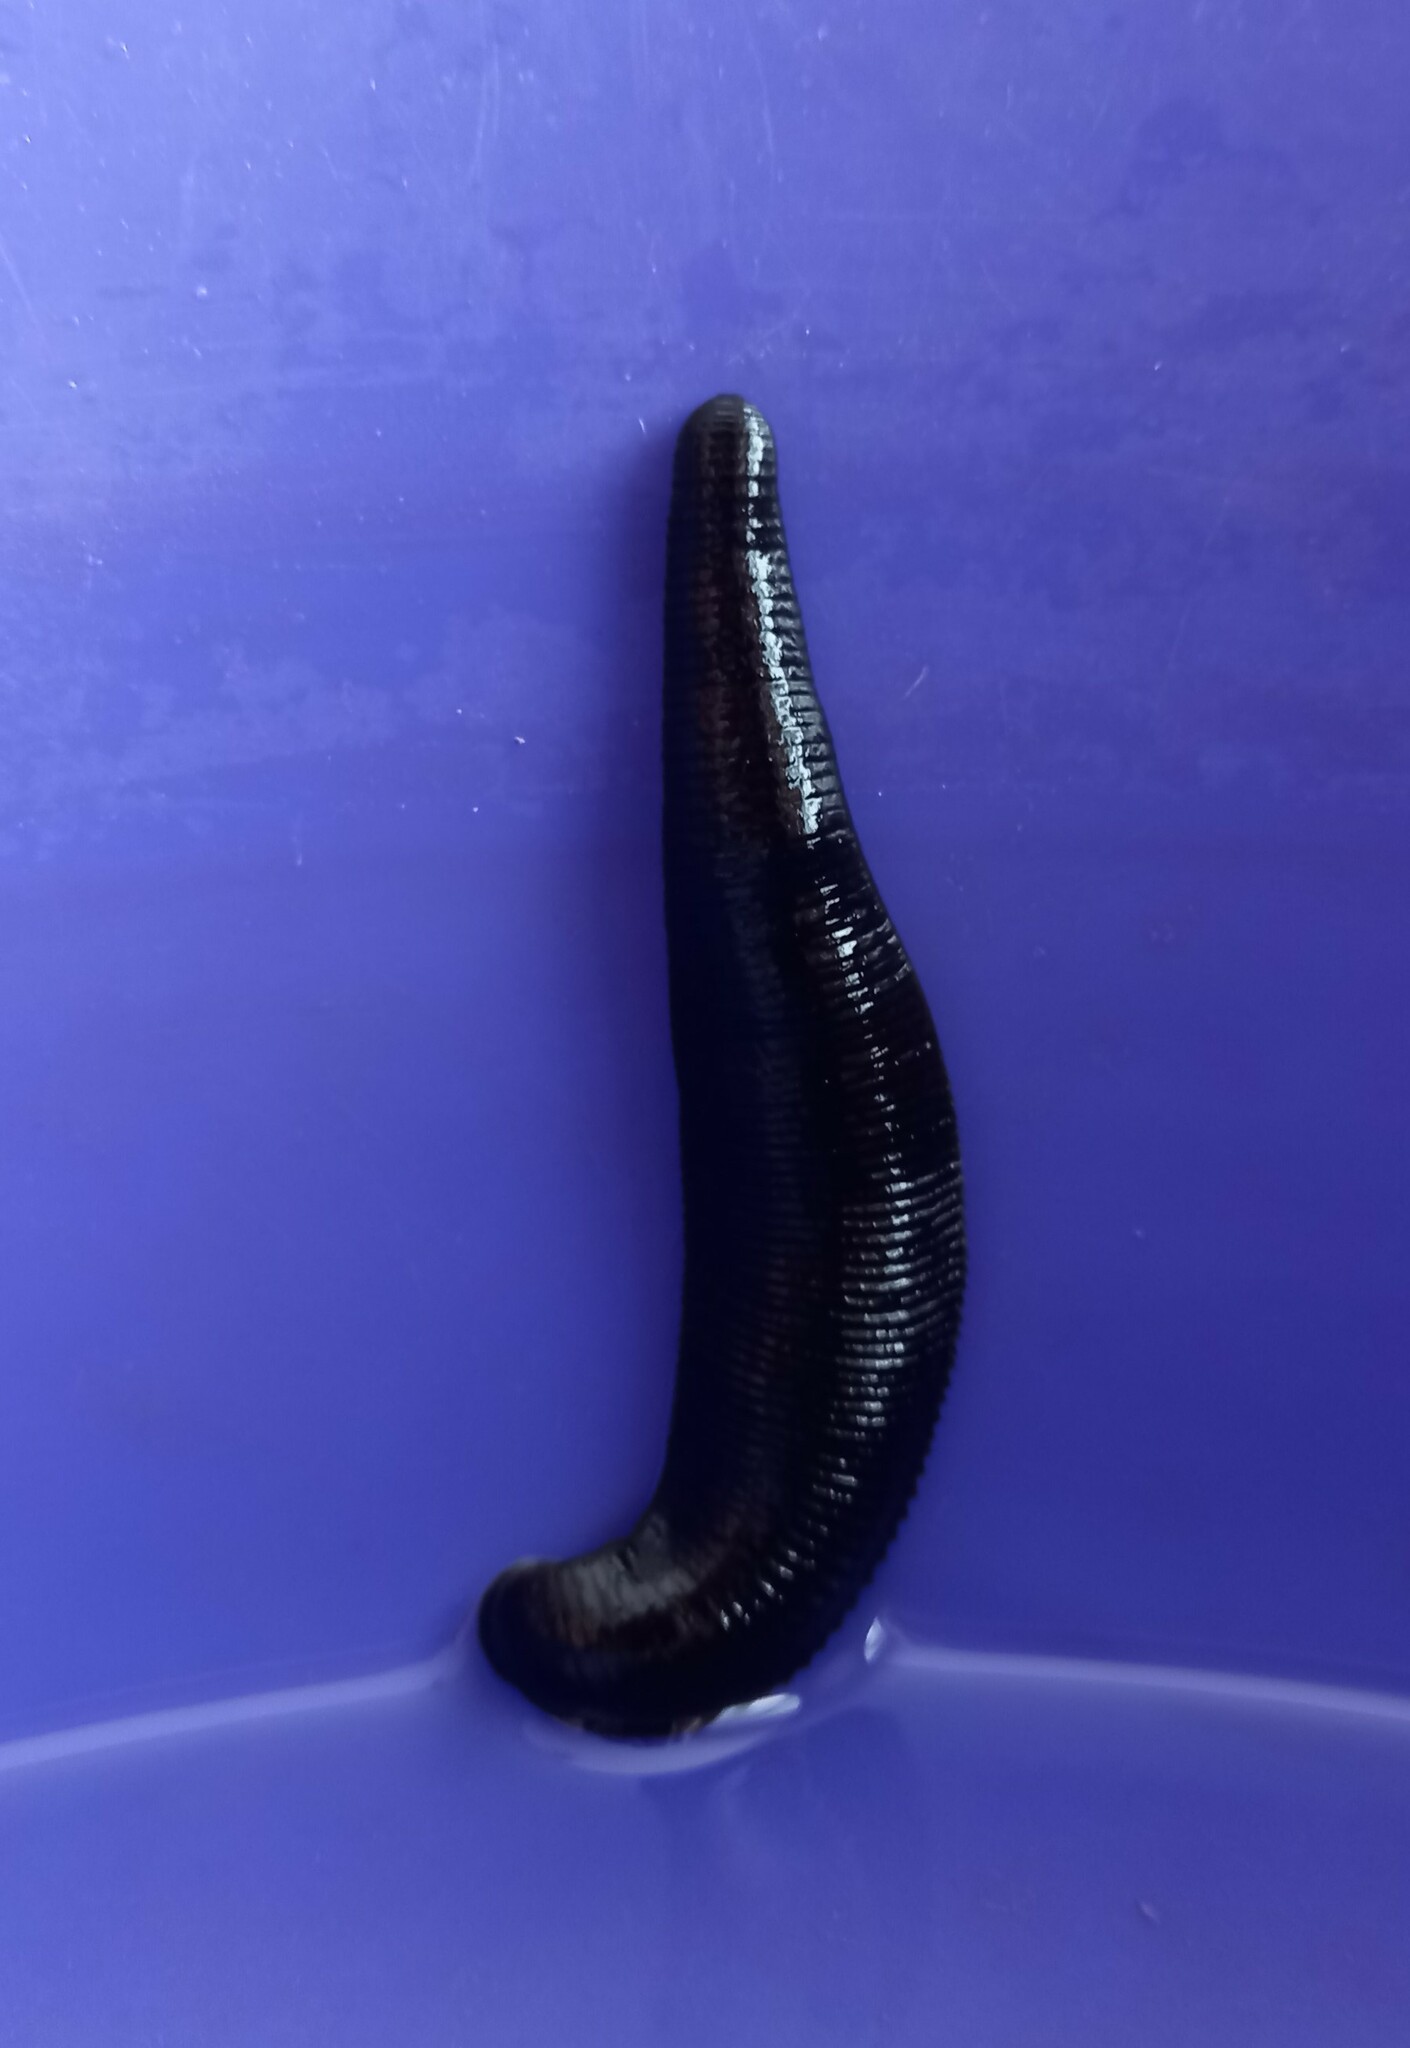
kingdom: Animalia
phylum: Annelida
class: Clitellata
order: Arhynchobdellida
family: Haemopidae
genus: Haemopis
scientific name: Haemopis sanguisuga
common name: Horse leech
